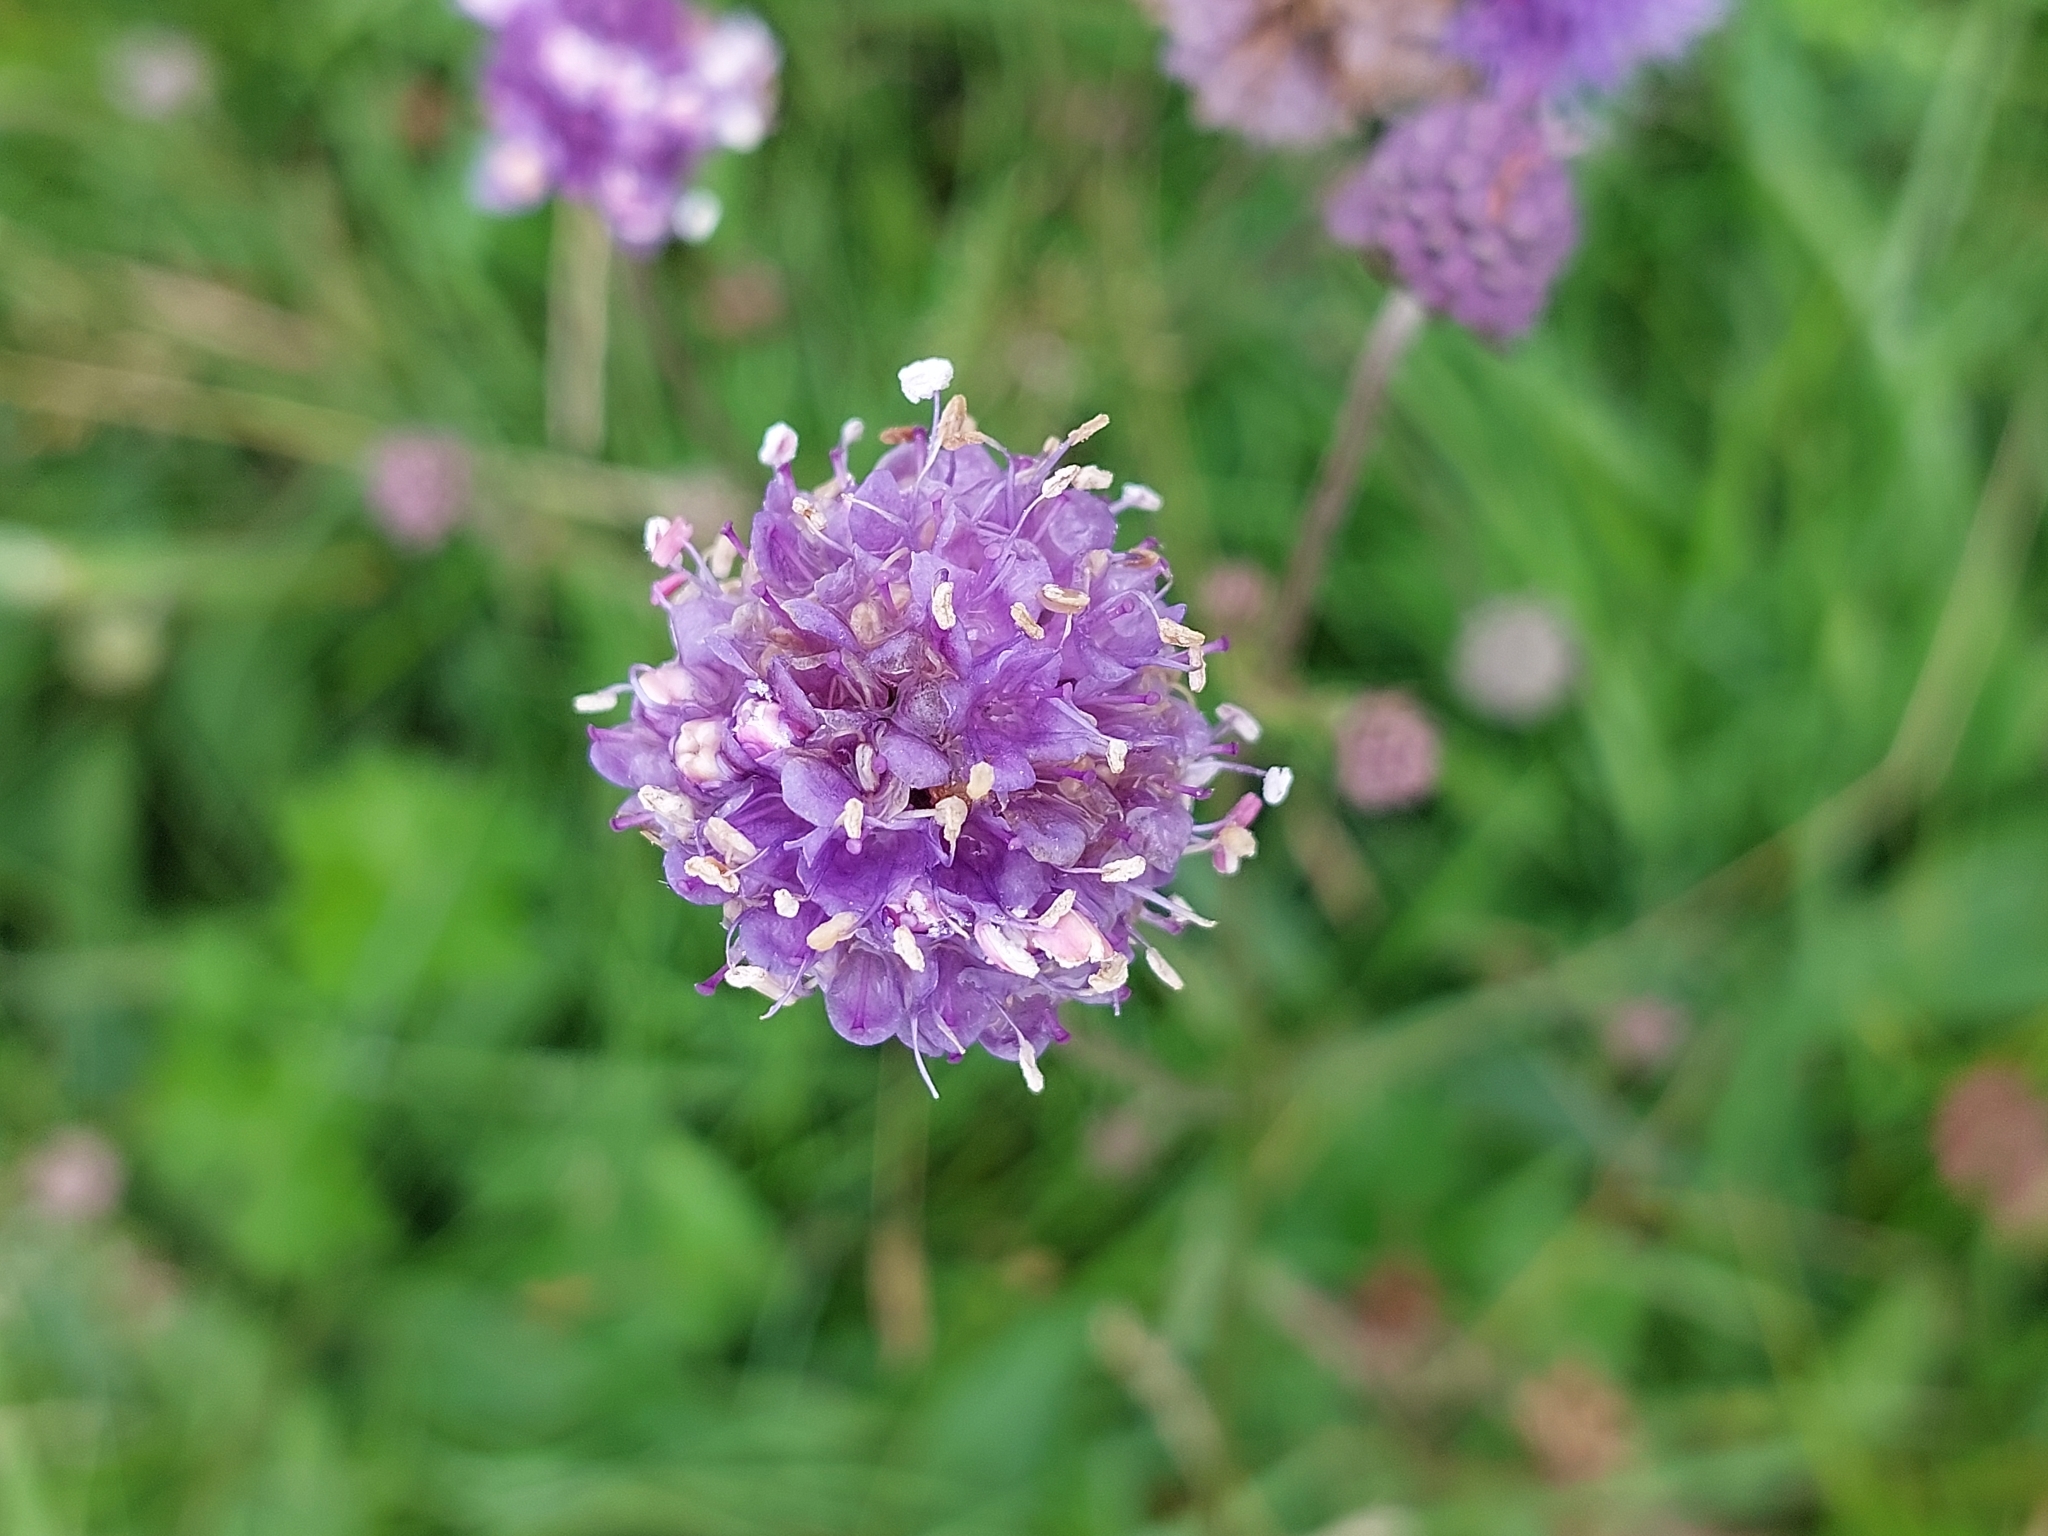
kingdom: Plantae
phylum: Tracheophyta
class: Magnoliopsida
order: Dipsacales
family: Caprifoliaceae
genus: Succisa
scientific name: Succisa pratensis
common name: Devil's-bit
